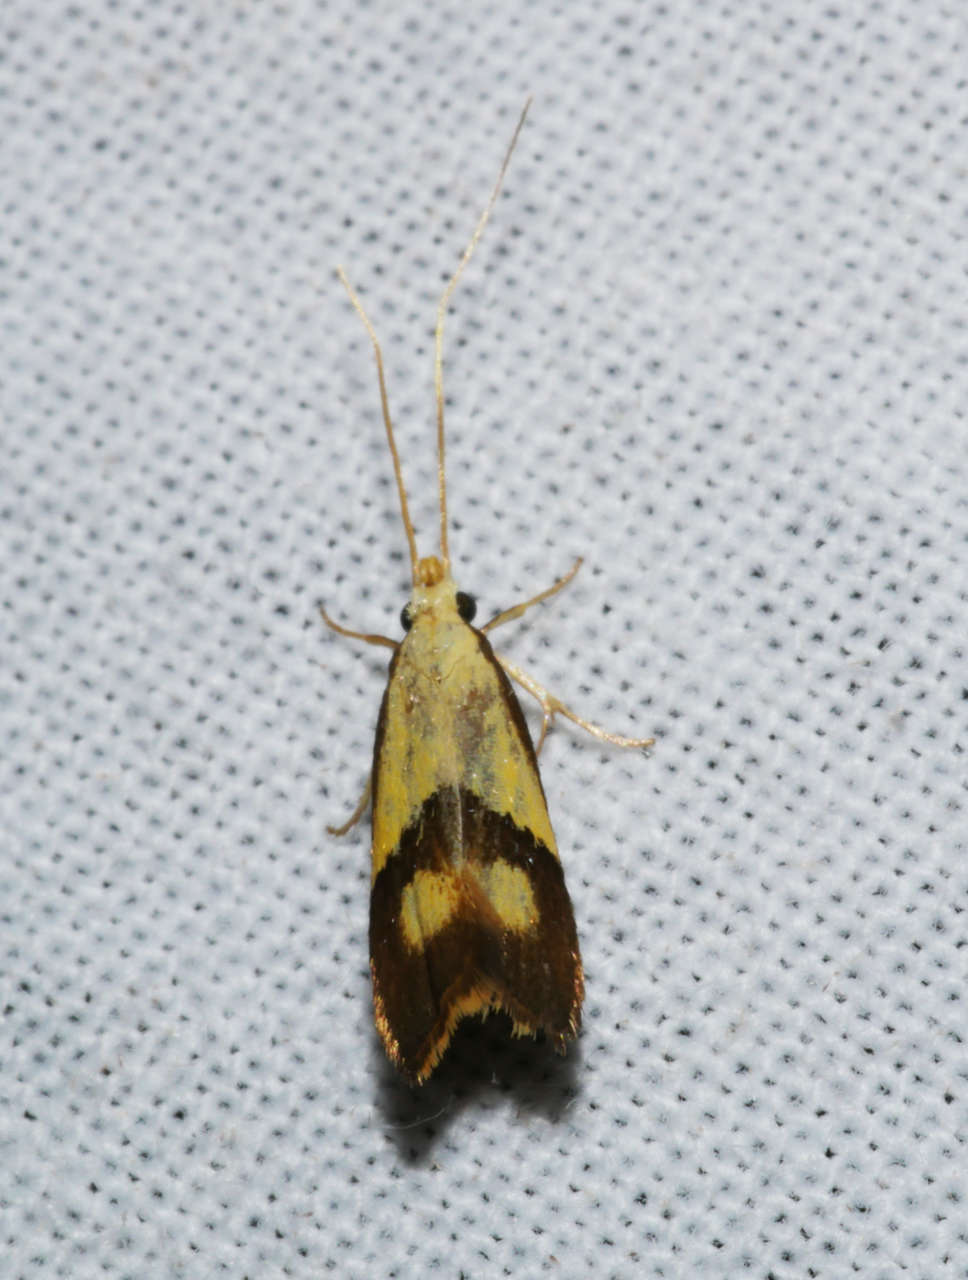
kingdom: Animalia
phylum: Arthropoda
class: Insecta
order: Lepidoptera
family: Lecithoceridae
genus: Crocanthes
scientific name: Crocanthes glycina
